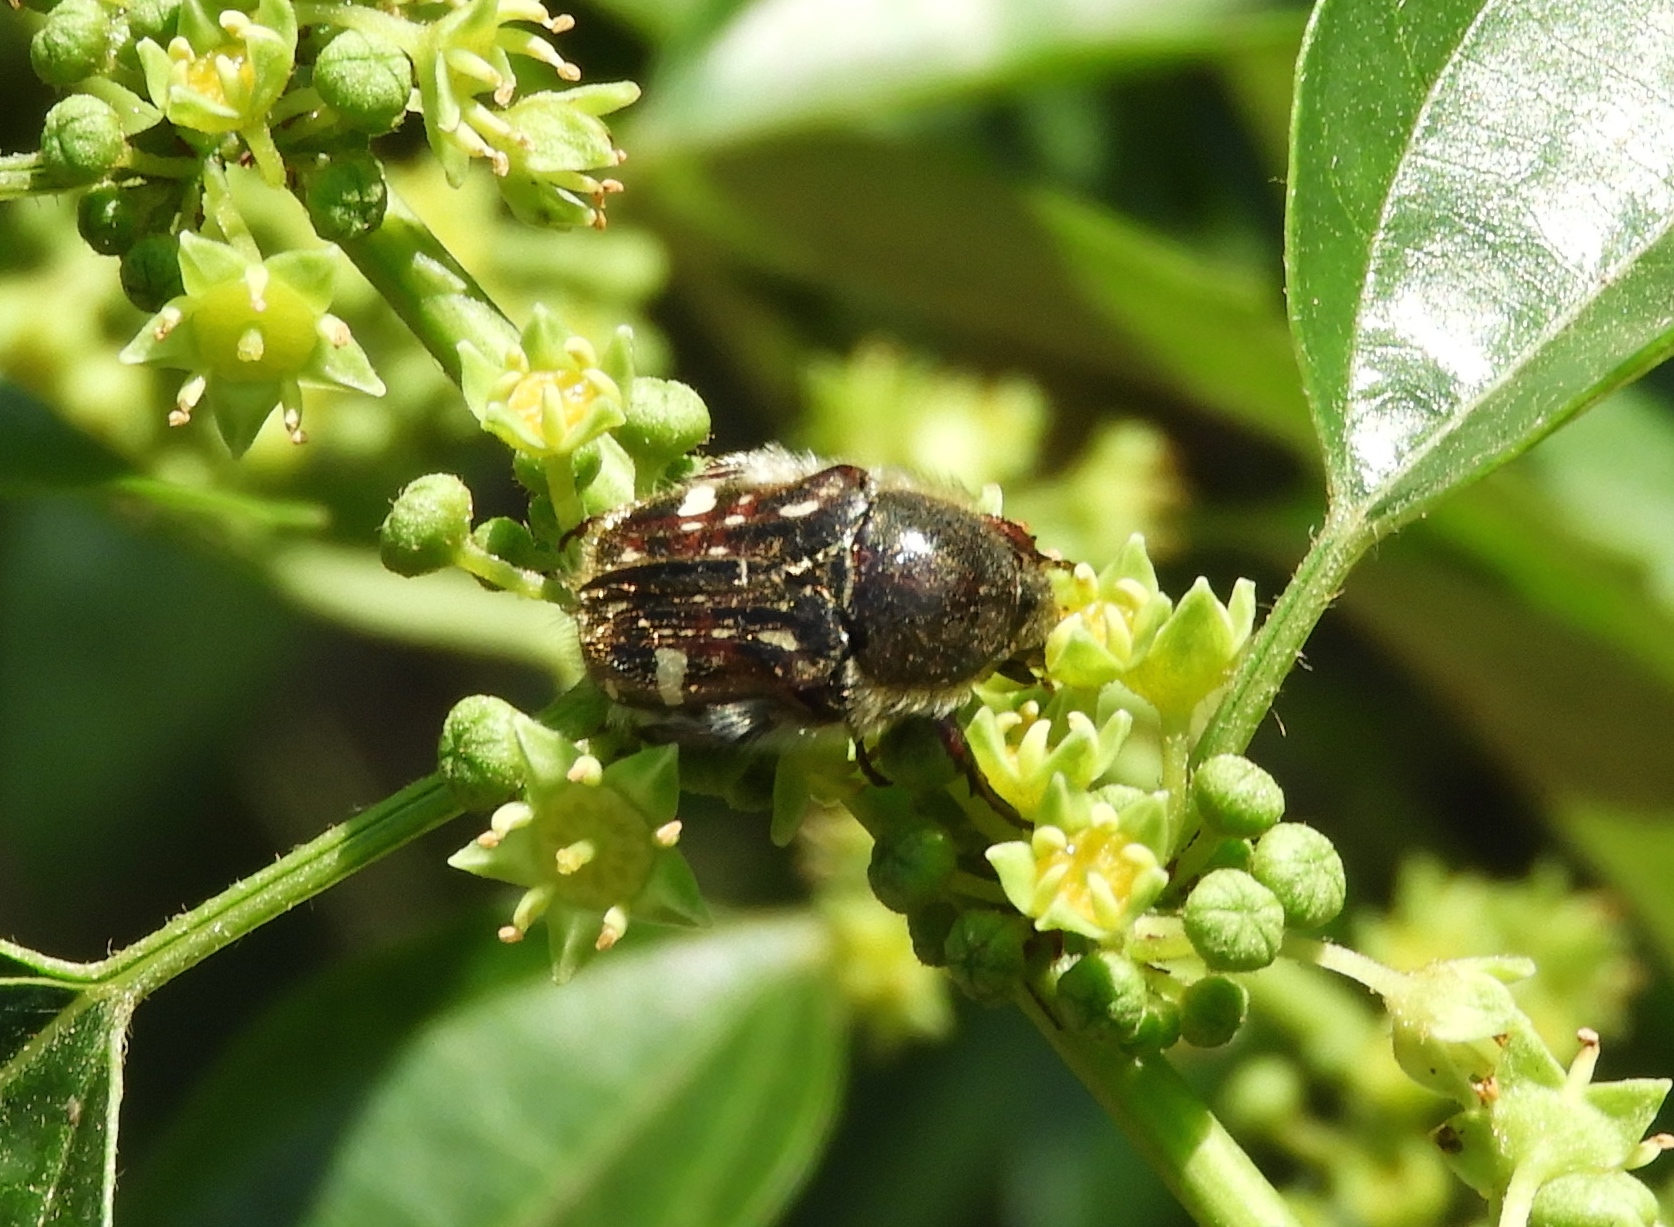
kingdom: Animalia
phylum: Arthropoda
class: Insecta
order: Coleoptera
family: Scarabaeidae
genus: Euphoria
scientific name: Euphoria pulchella
